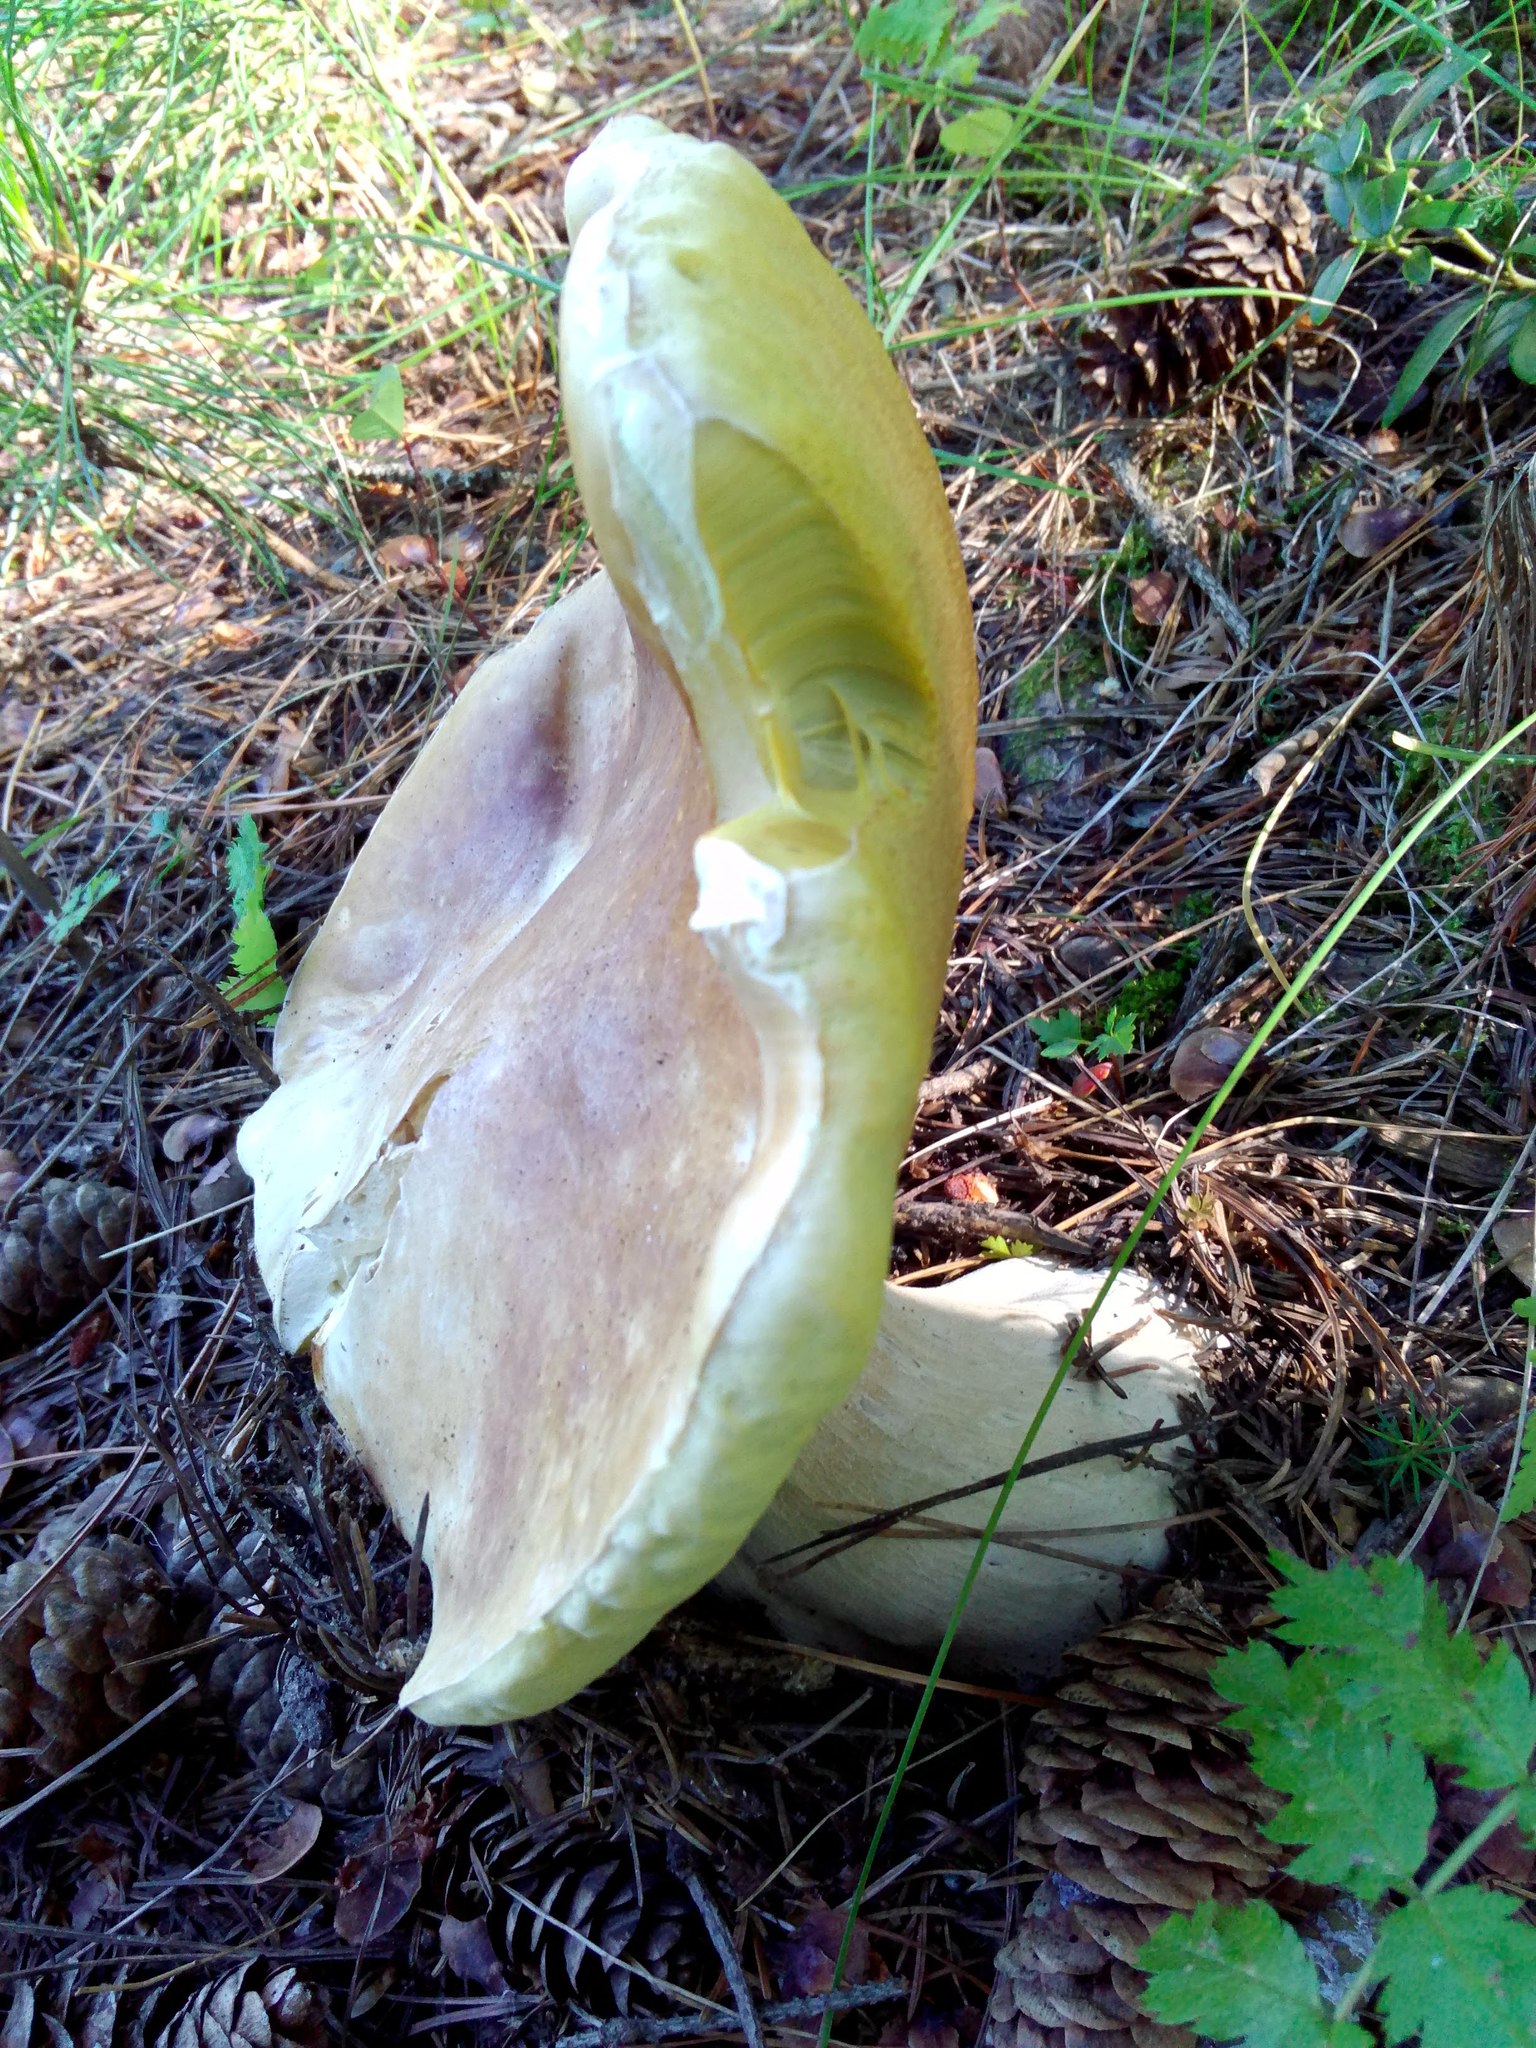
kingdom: Fungi
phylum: Basidiomycota
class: Agaricomycetes
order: Boletales
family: Boletaceae
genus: Boletus
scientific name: Boletus edulis
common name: Cep
